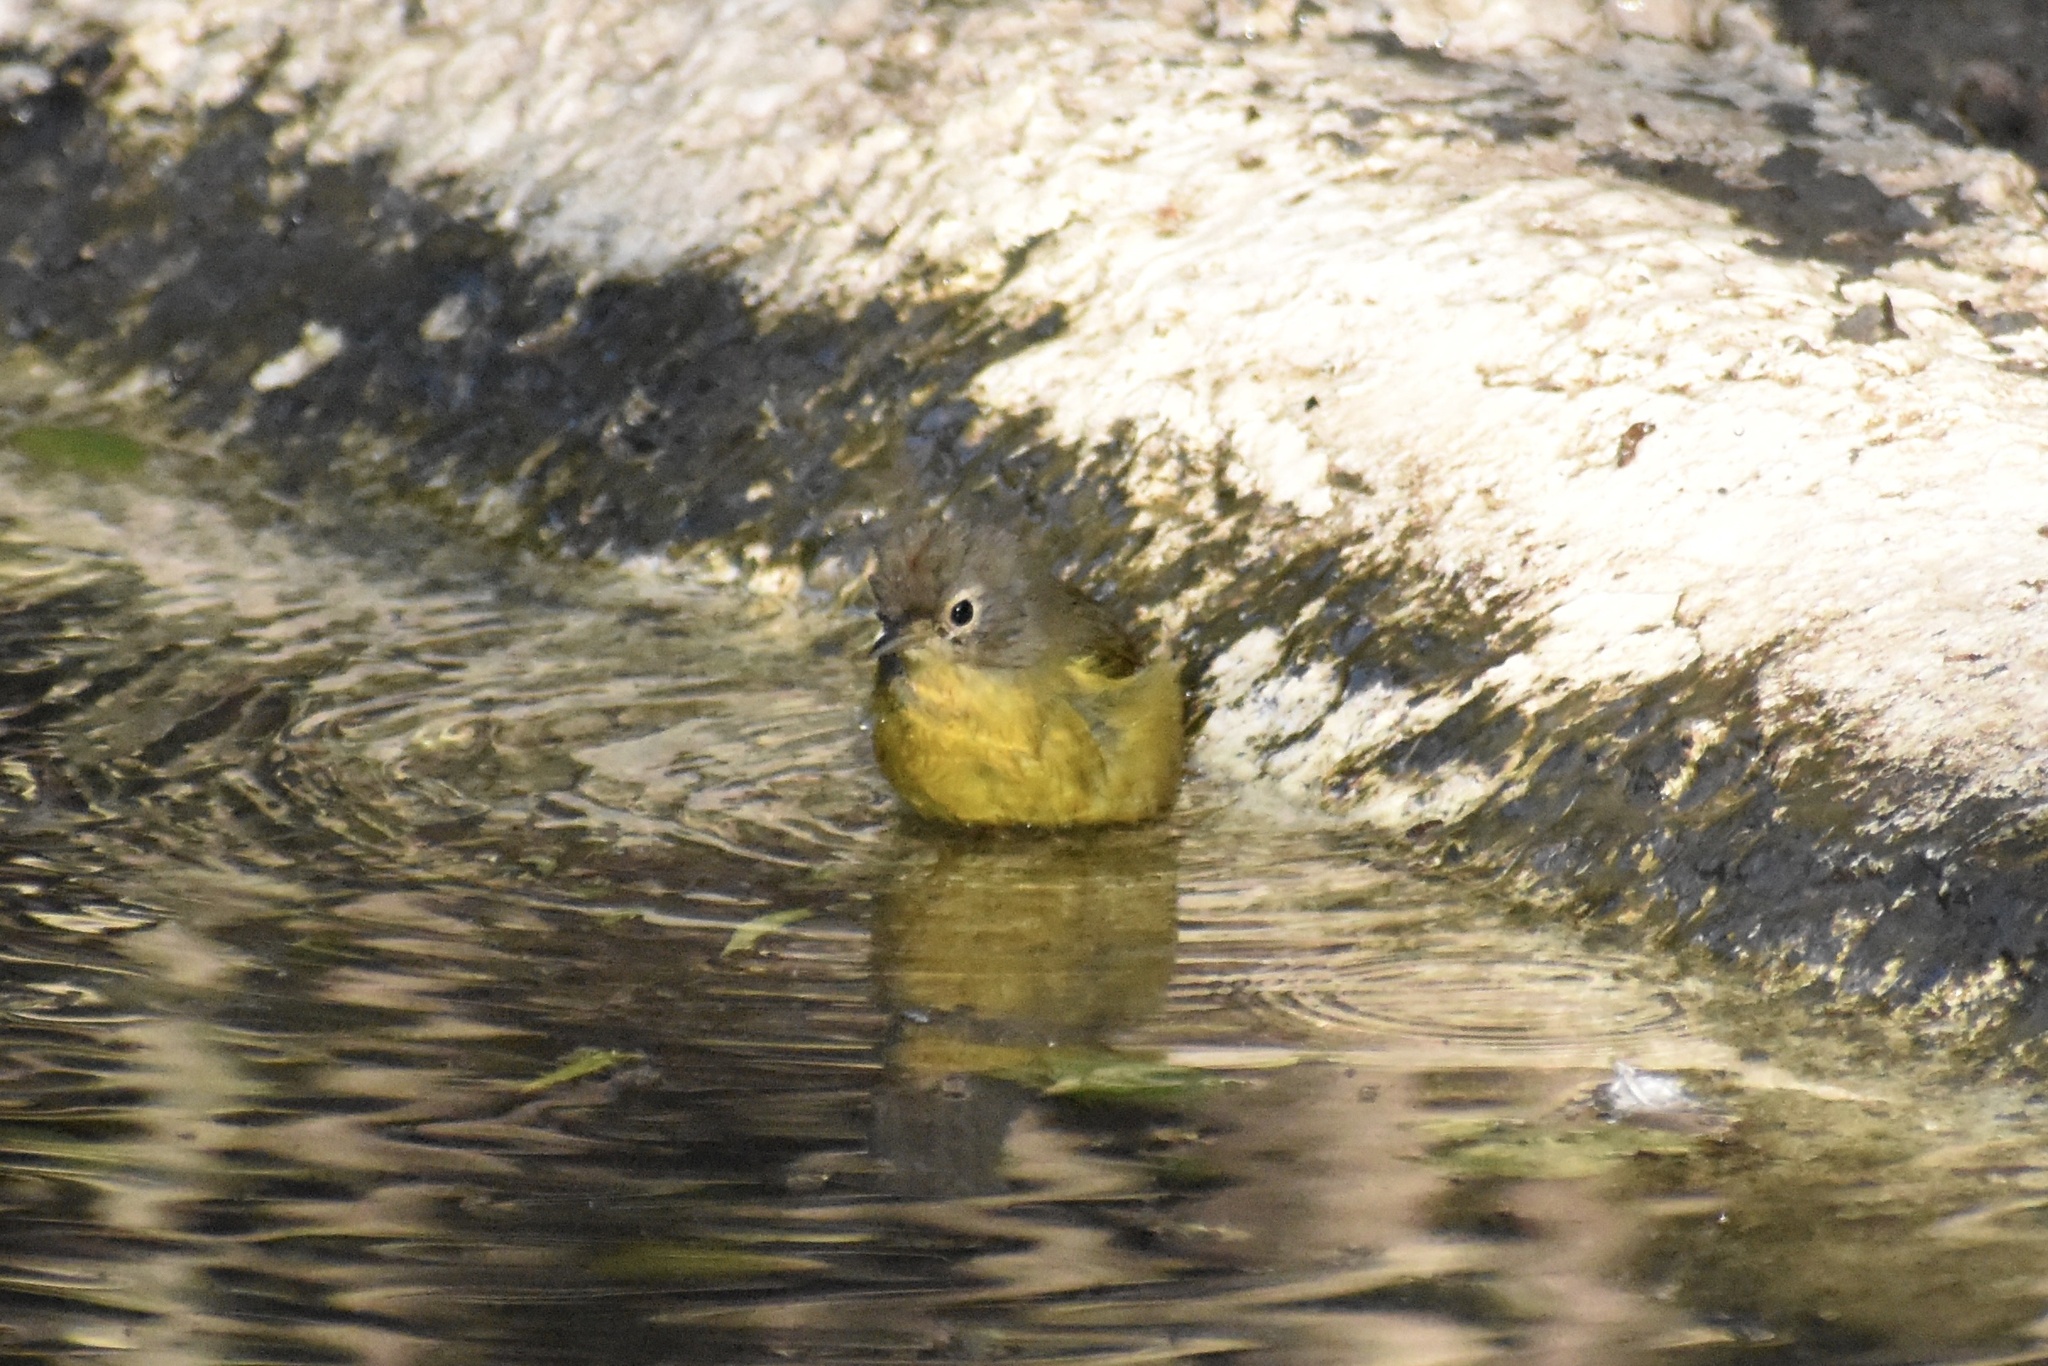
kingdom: Animalia
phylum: Chordata
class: Aves
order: Passeriformes
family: Parulidae
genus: Leiothlypis
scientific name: Leiothlypis ruficapilla
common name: Nashville warbler
